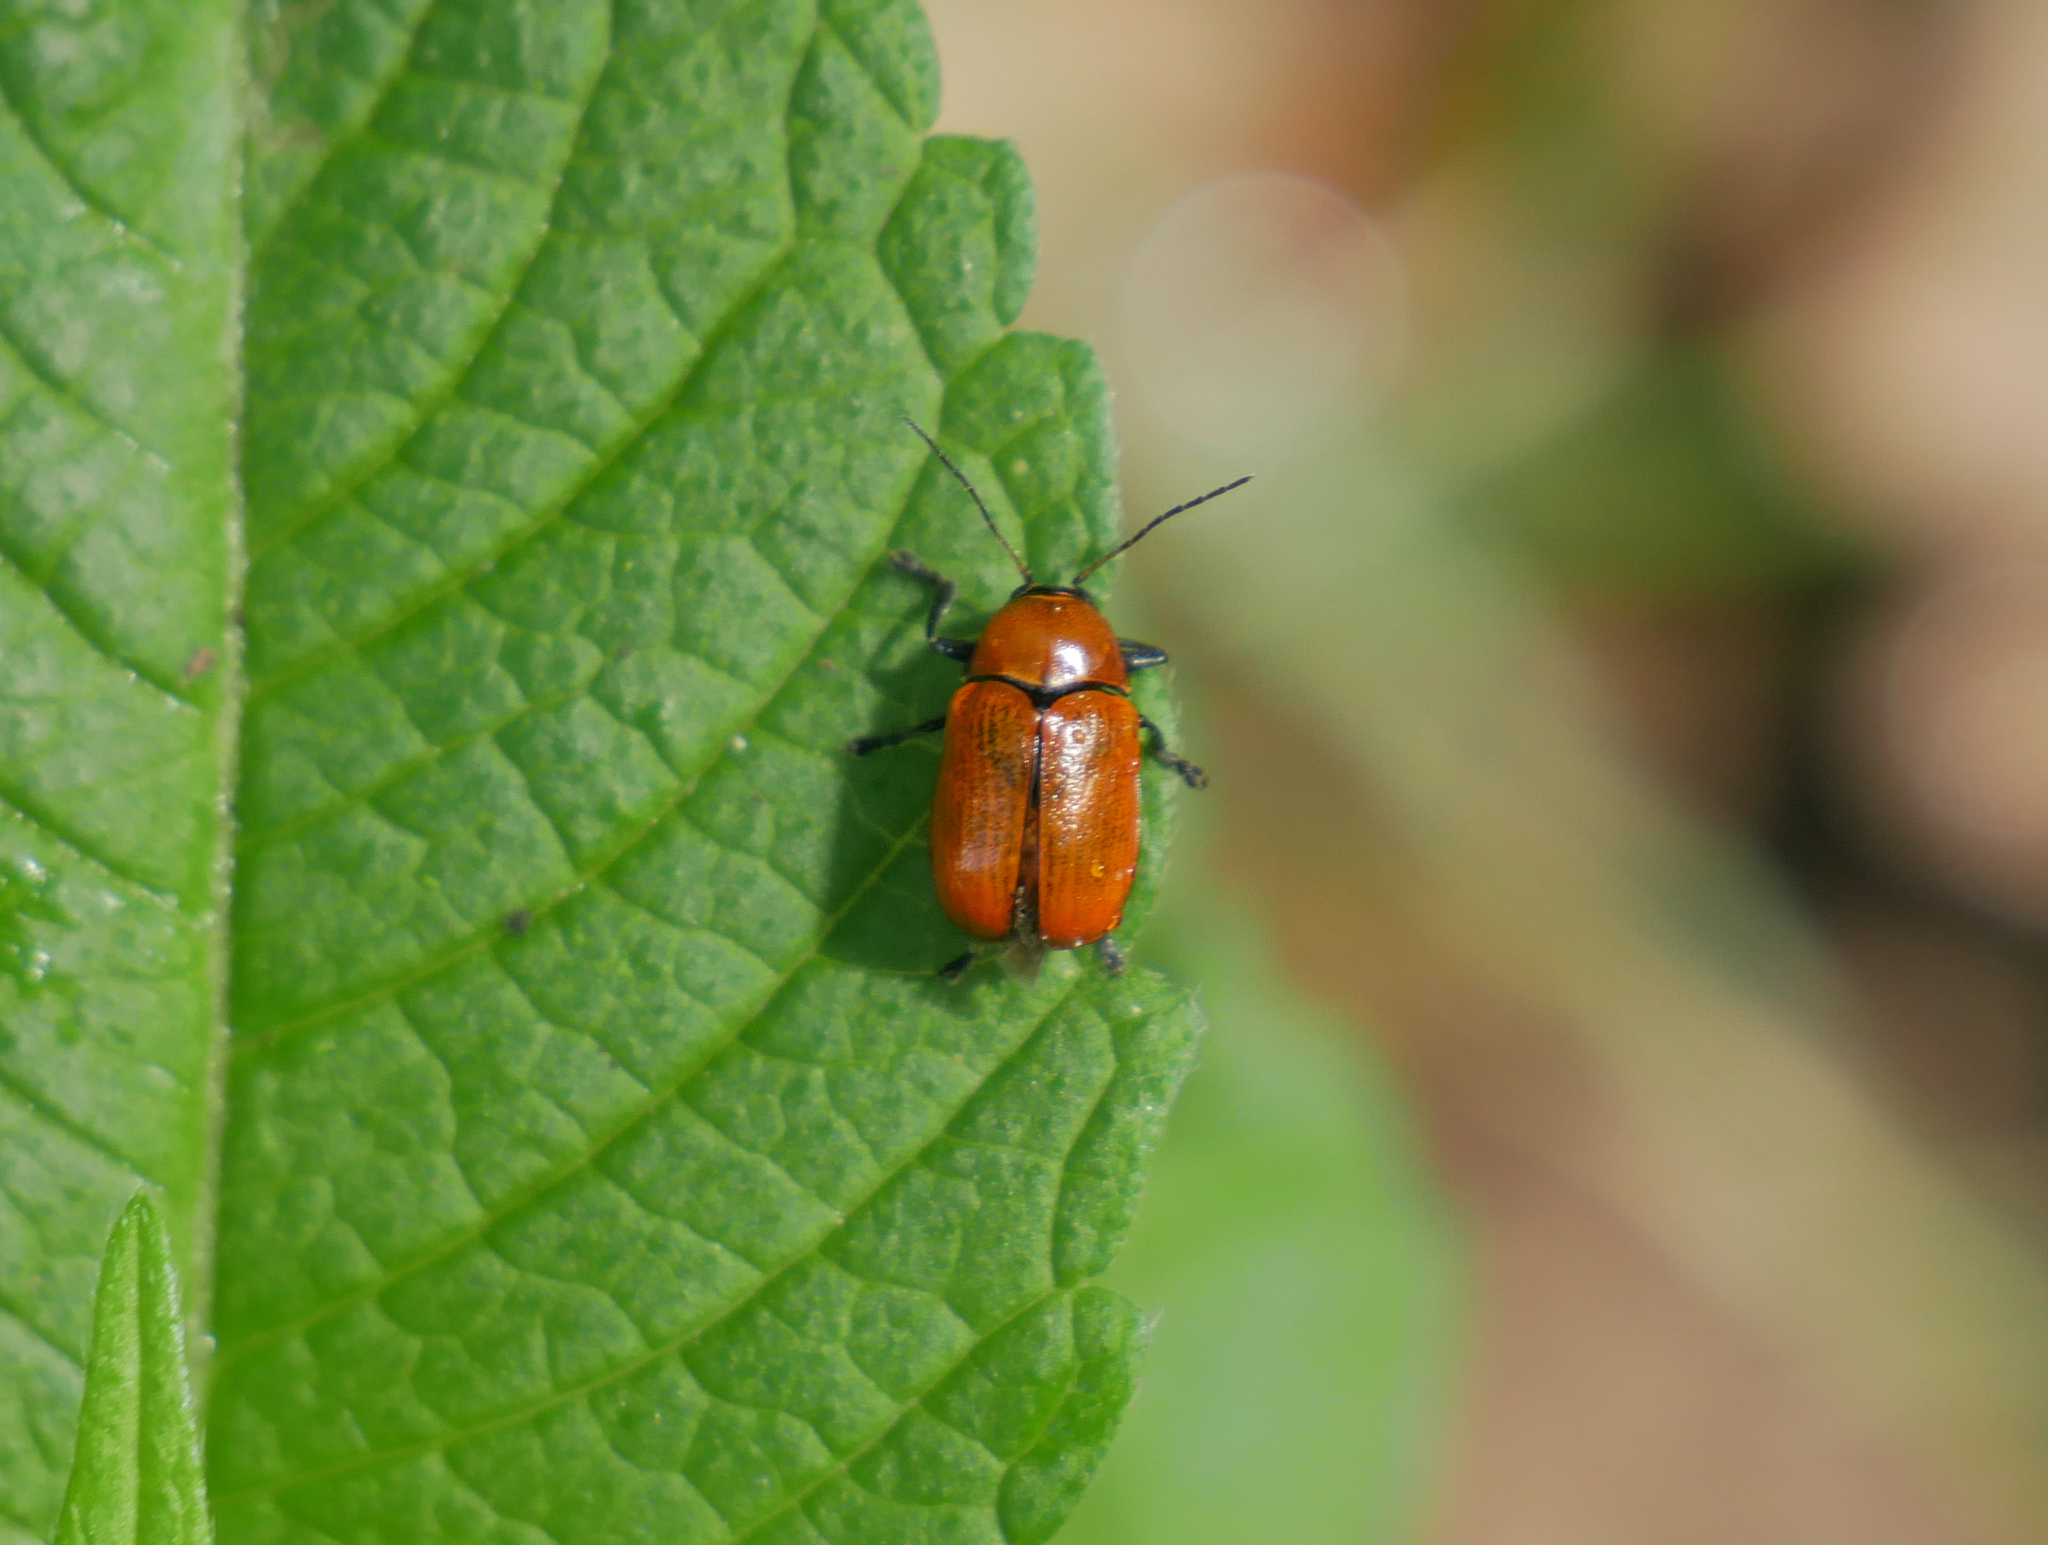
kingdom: Animalia
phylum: Arthropoda
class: Insecta
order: Coleoptera
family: Chrysomelidae
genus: Cryptocephalus
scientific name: Cryptocephalus coryli
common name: Hazel pot beetle
